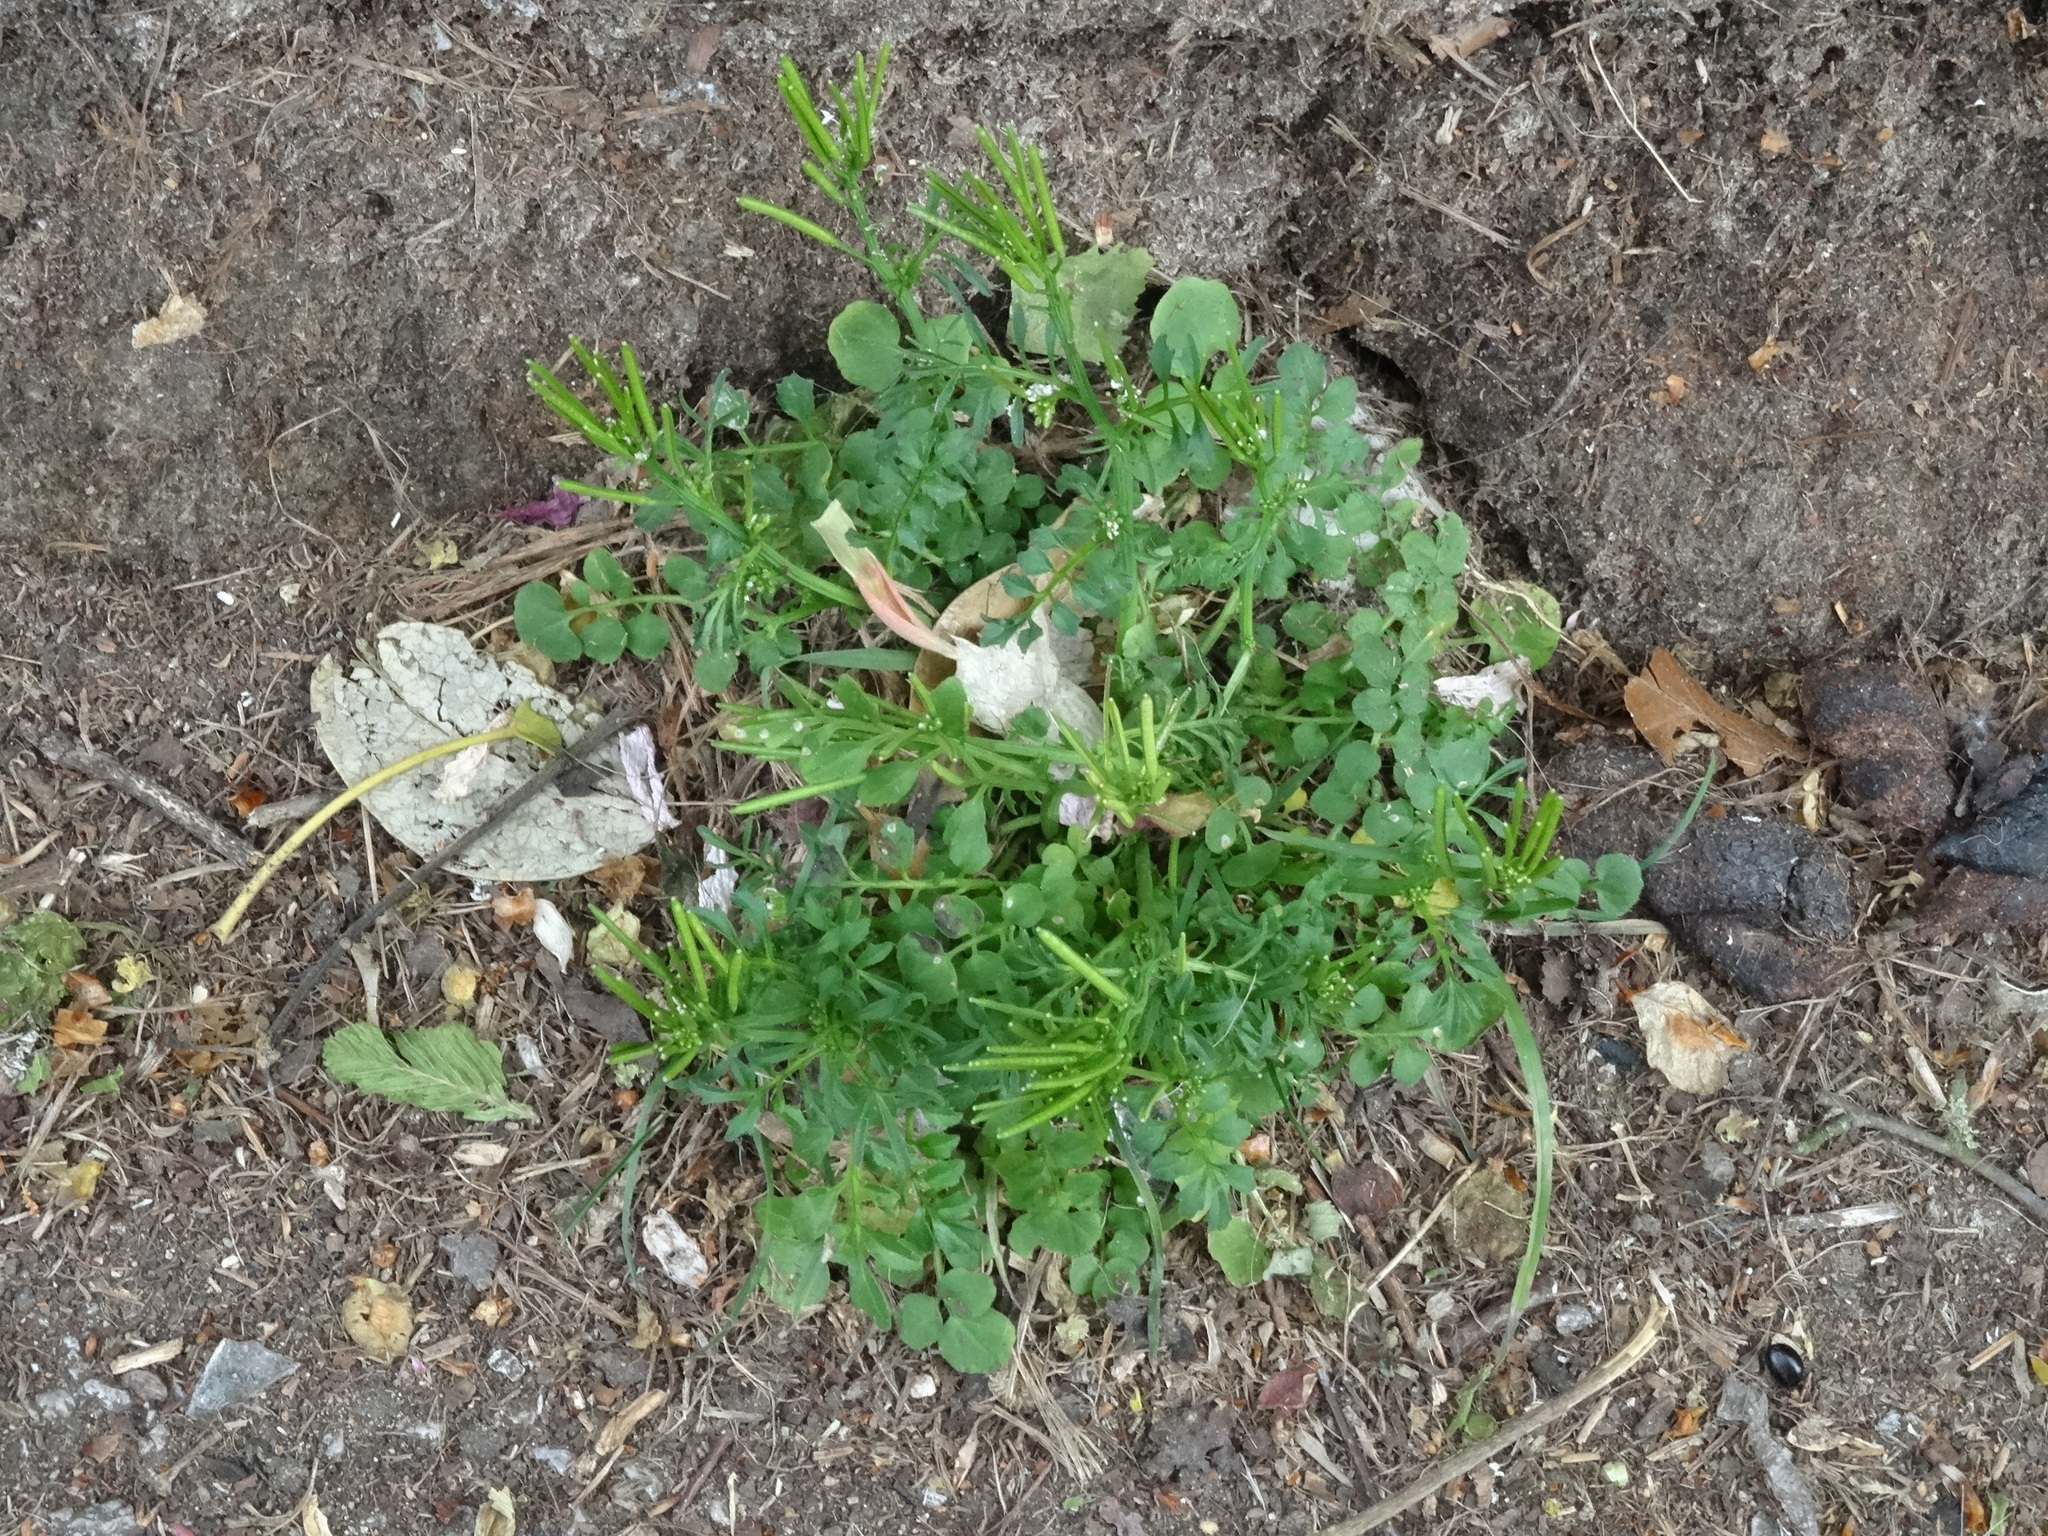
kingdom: Plantae
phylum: Tracheophyta
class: Magnoliopsida
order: Brassicales
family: Brassicaceae
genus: Cardamine
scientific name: Cardamine flexuosa
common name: Woodland bittercress
